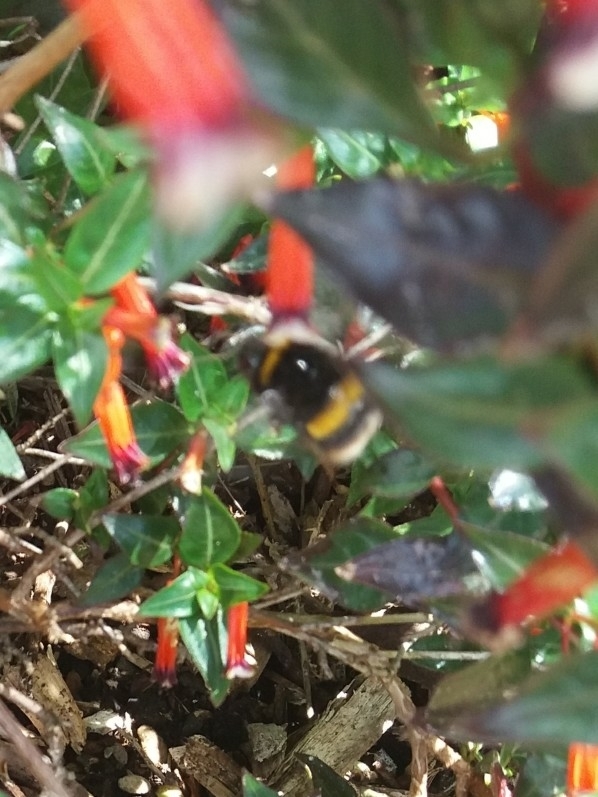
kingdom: Animalia
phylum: Arthropoda
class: Insecta
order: Hymenoptera
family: Apidae
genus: Bombus
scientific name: Bombus terrestris
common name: Buff-tailed bumblebee
